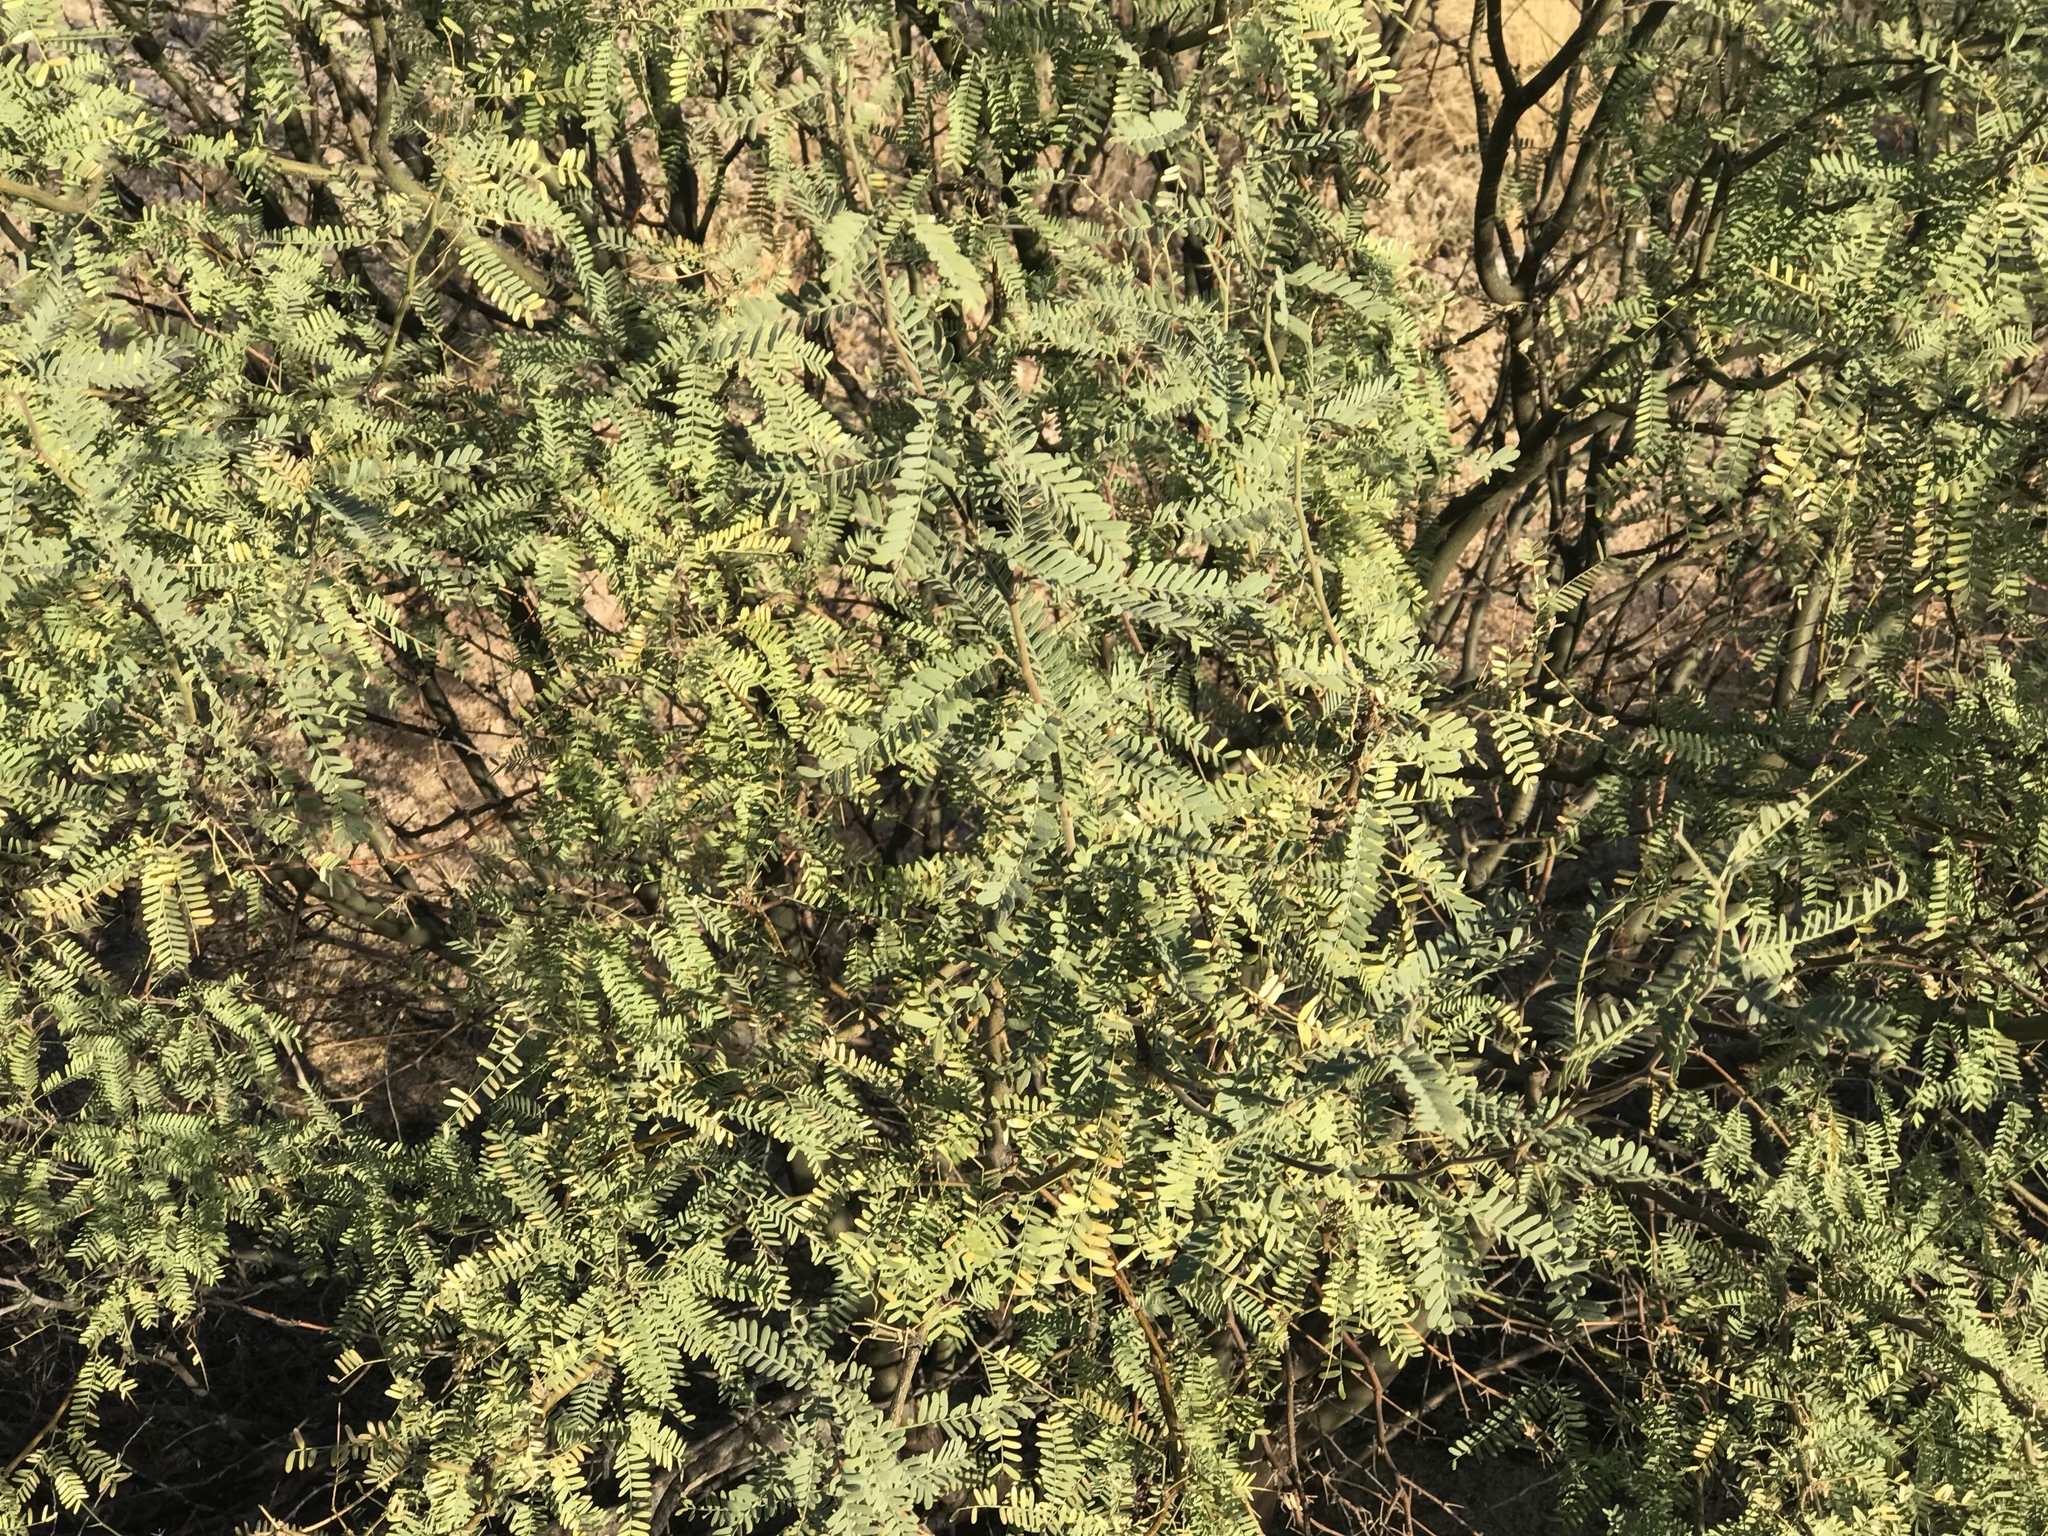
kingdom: Plantae
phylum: Tracheophyta
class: Magnoliopsida
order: Fabales
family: Fabaceae
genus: Prosopis
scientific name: Prosopis velutina
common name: Velvet mesquite
